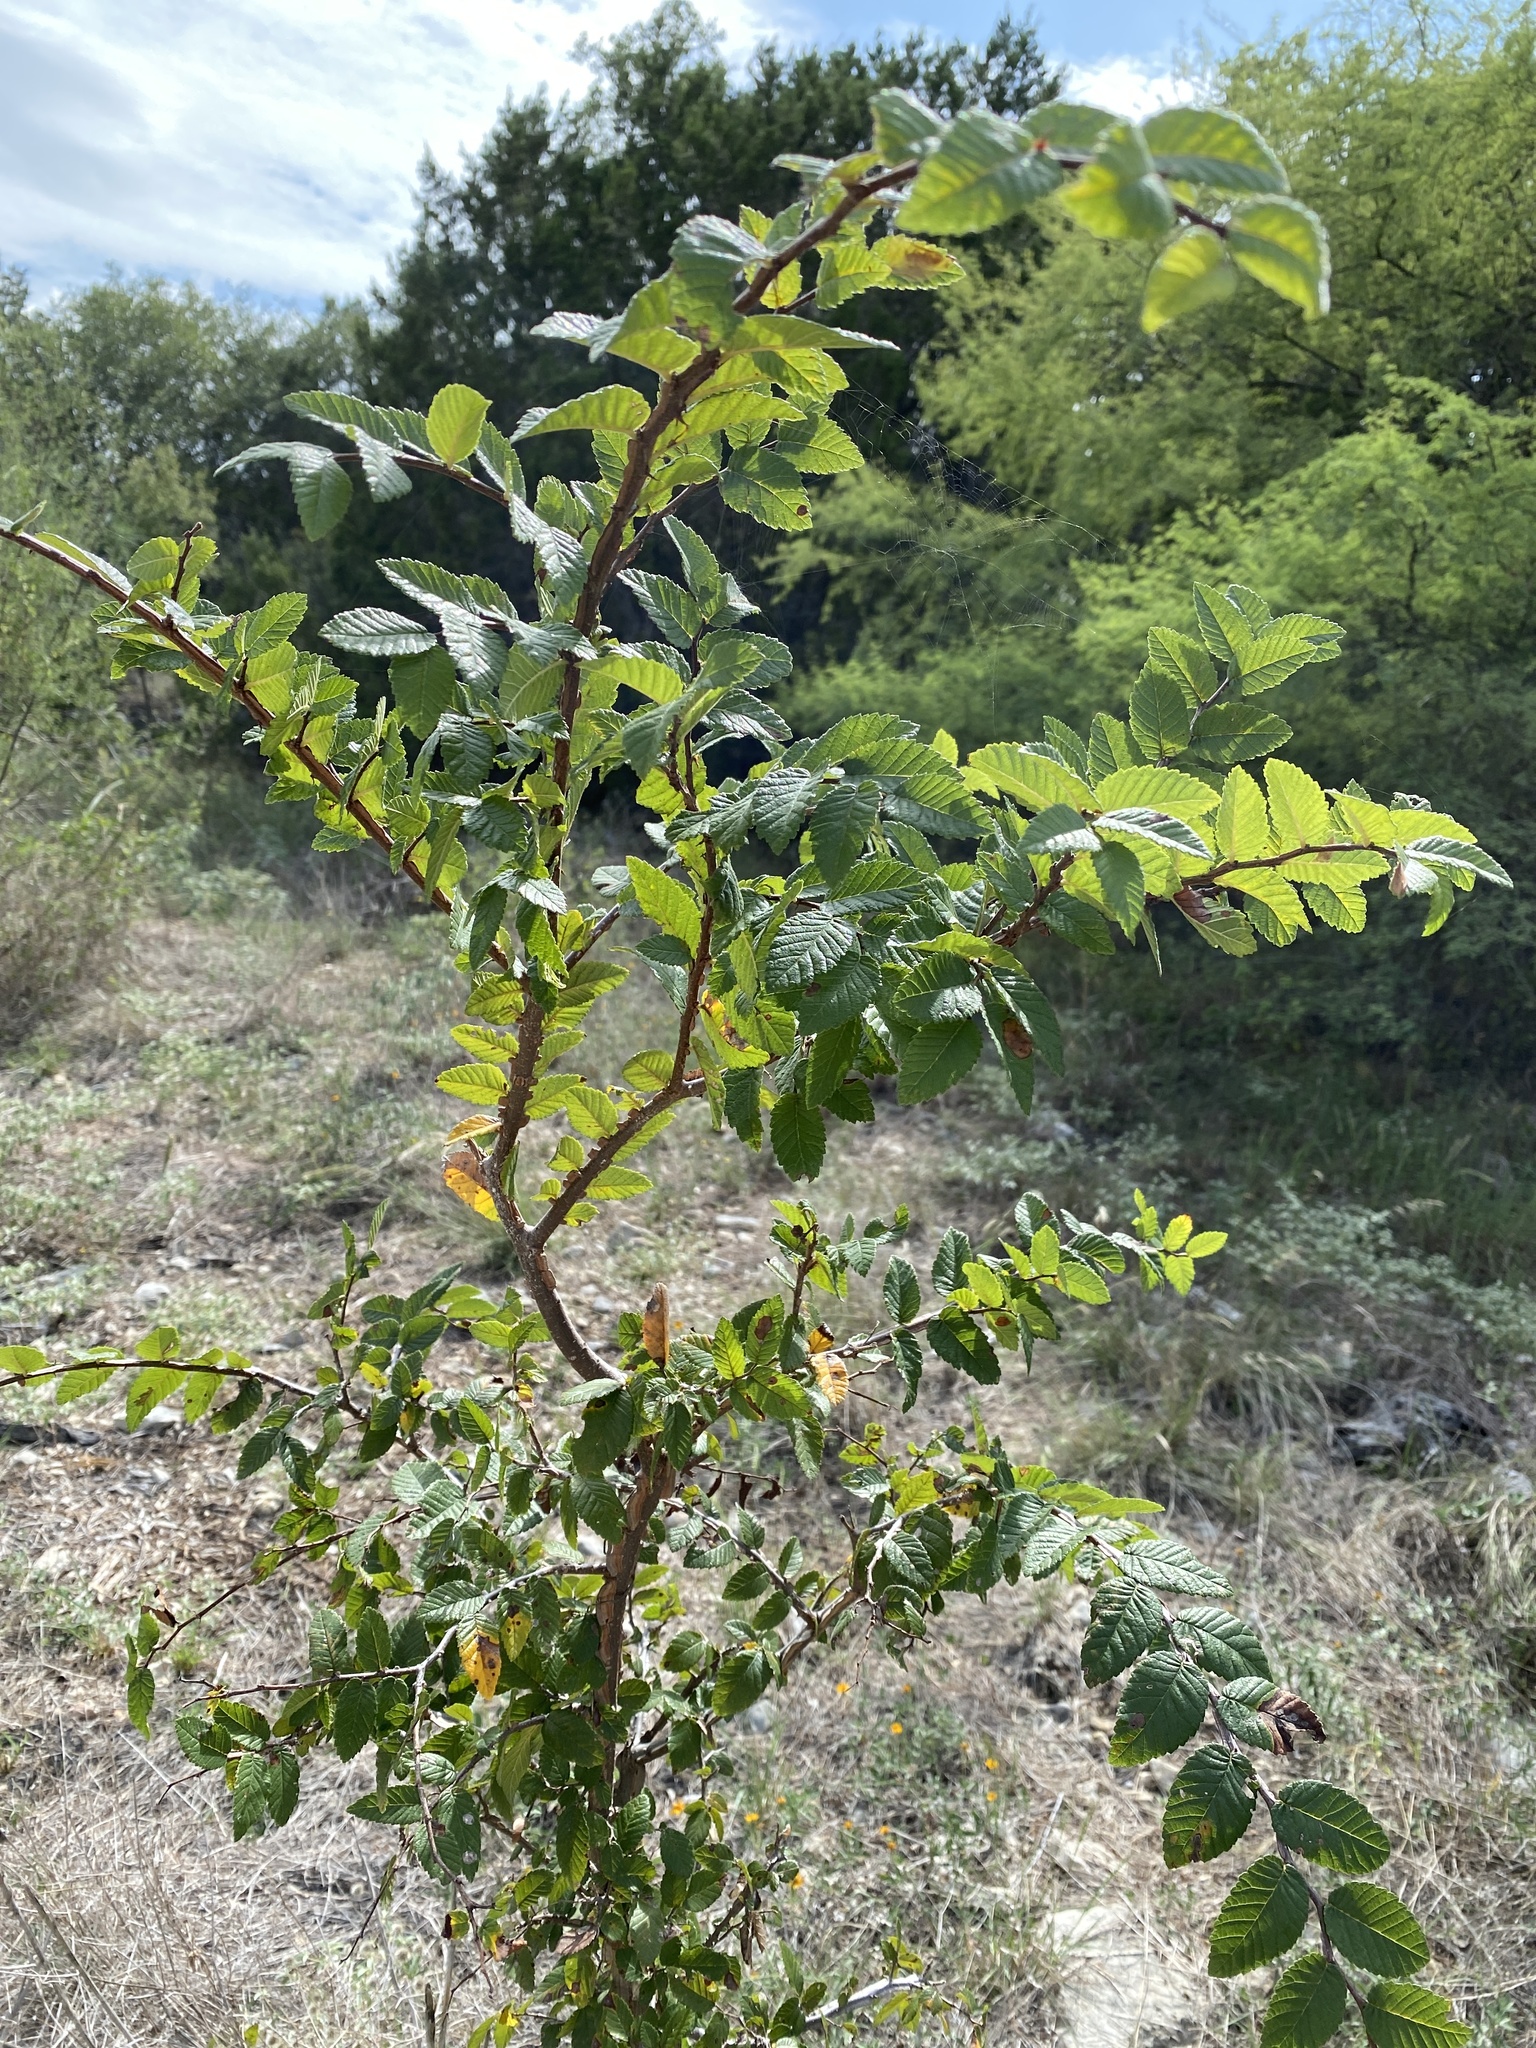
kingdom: Plantae
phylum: Tracheophyta
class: Magnoliopsida
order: Rosales
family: Ulmaceae
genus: Ulmus
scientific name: Ulmus crassifolia
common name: Basket elm
